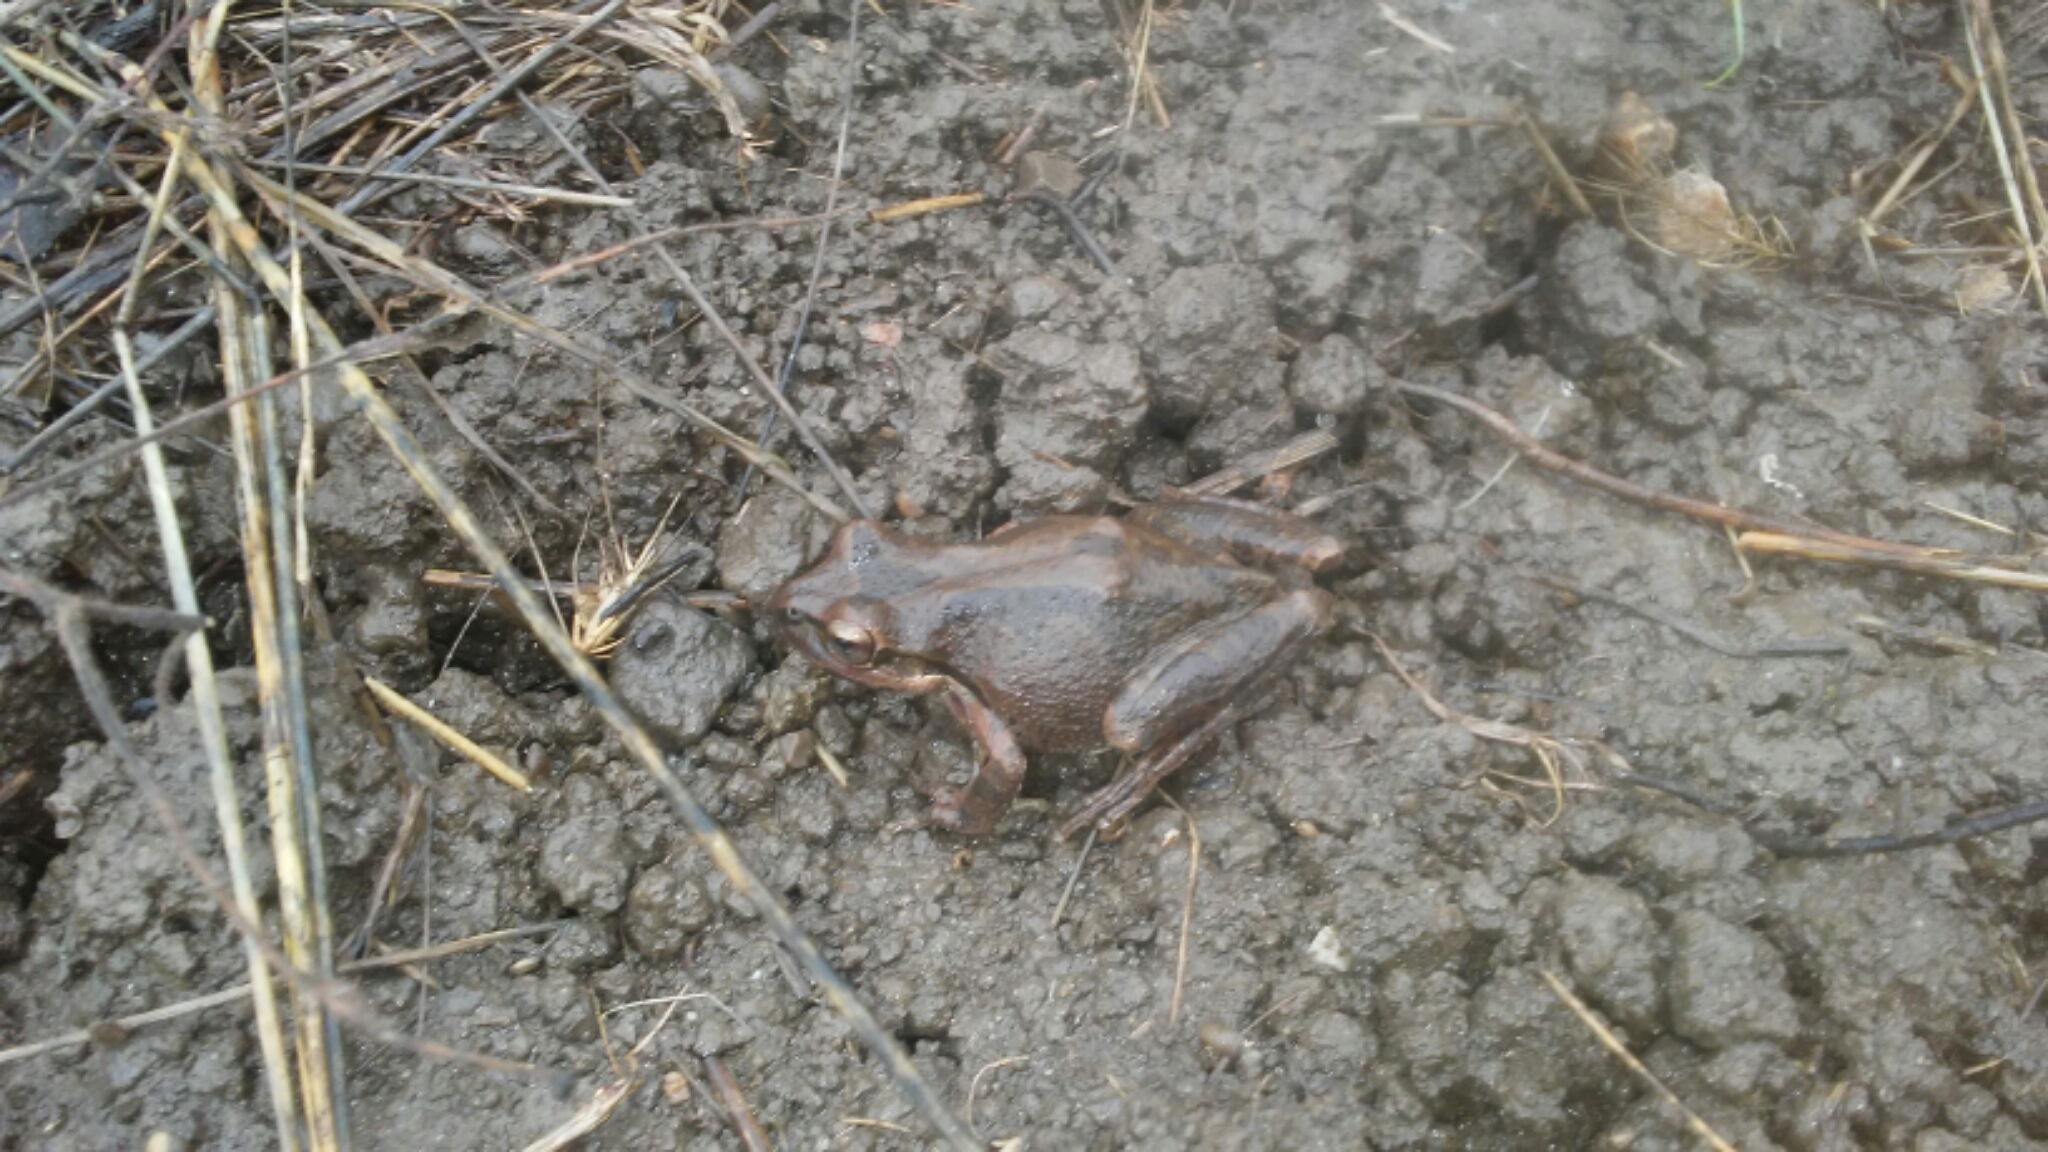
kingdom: Animalia
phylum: Chordata
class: Amphibia
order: Anura
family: Hylidae
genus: Pseudacris
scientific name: Pseudacris regilla
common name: Pacific chorus frog
